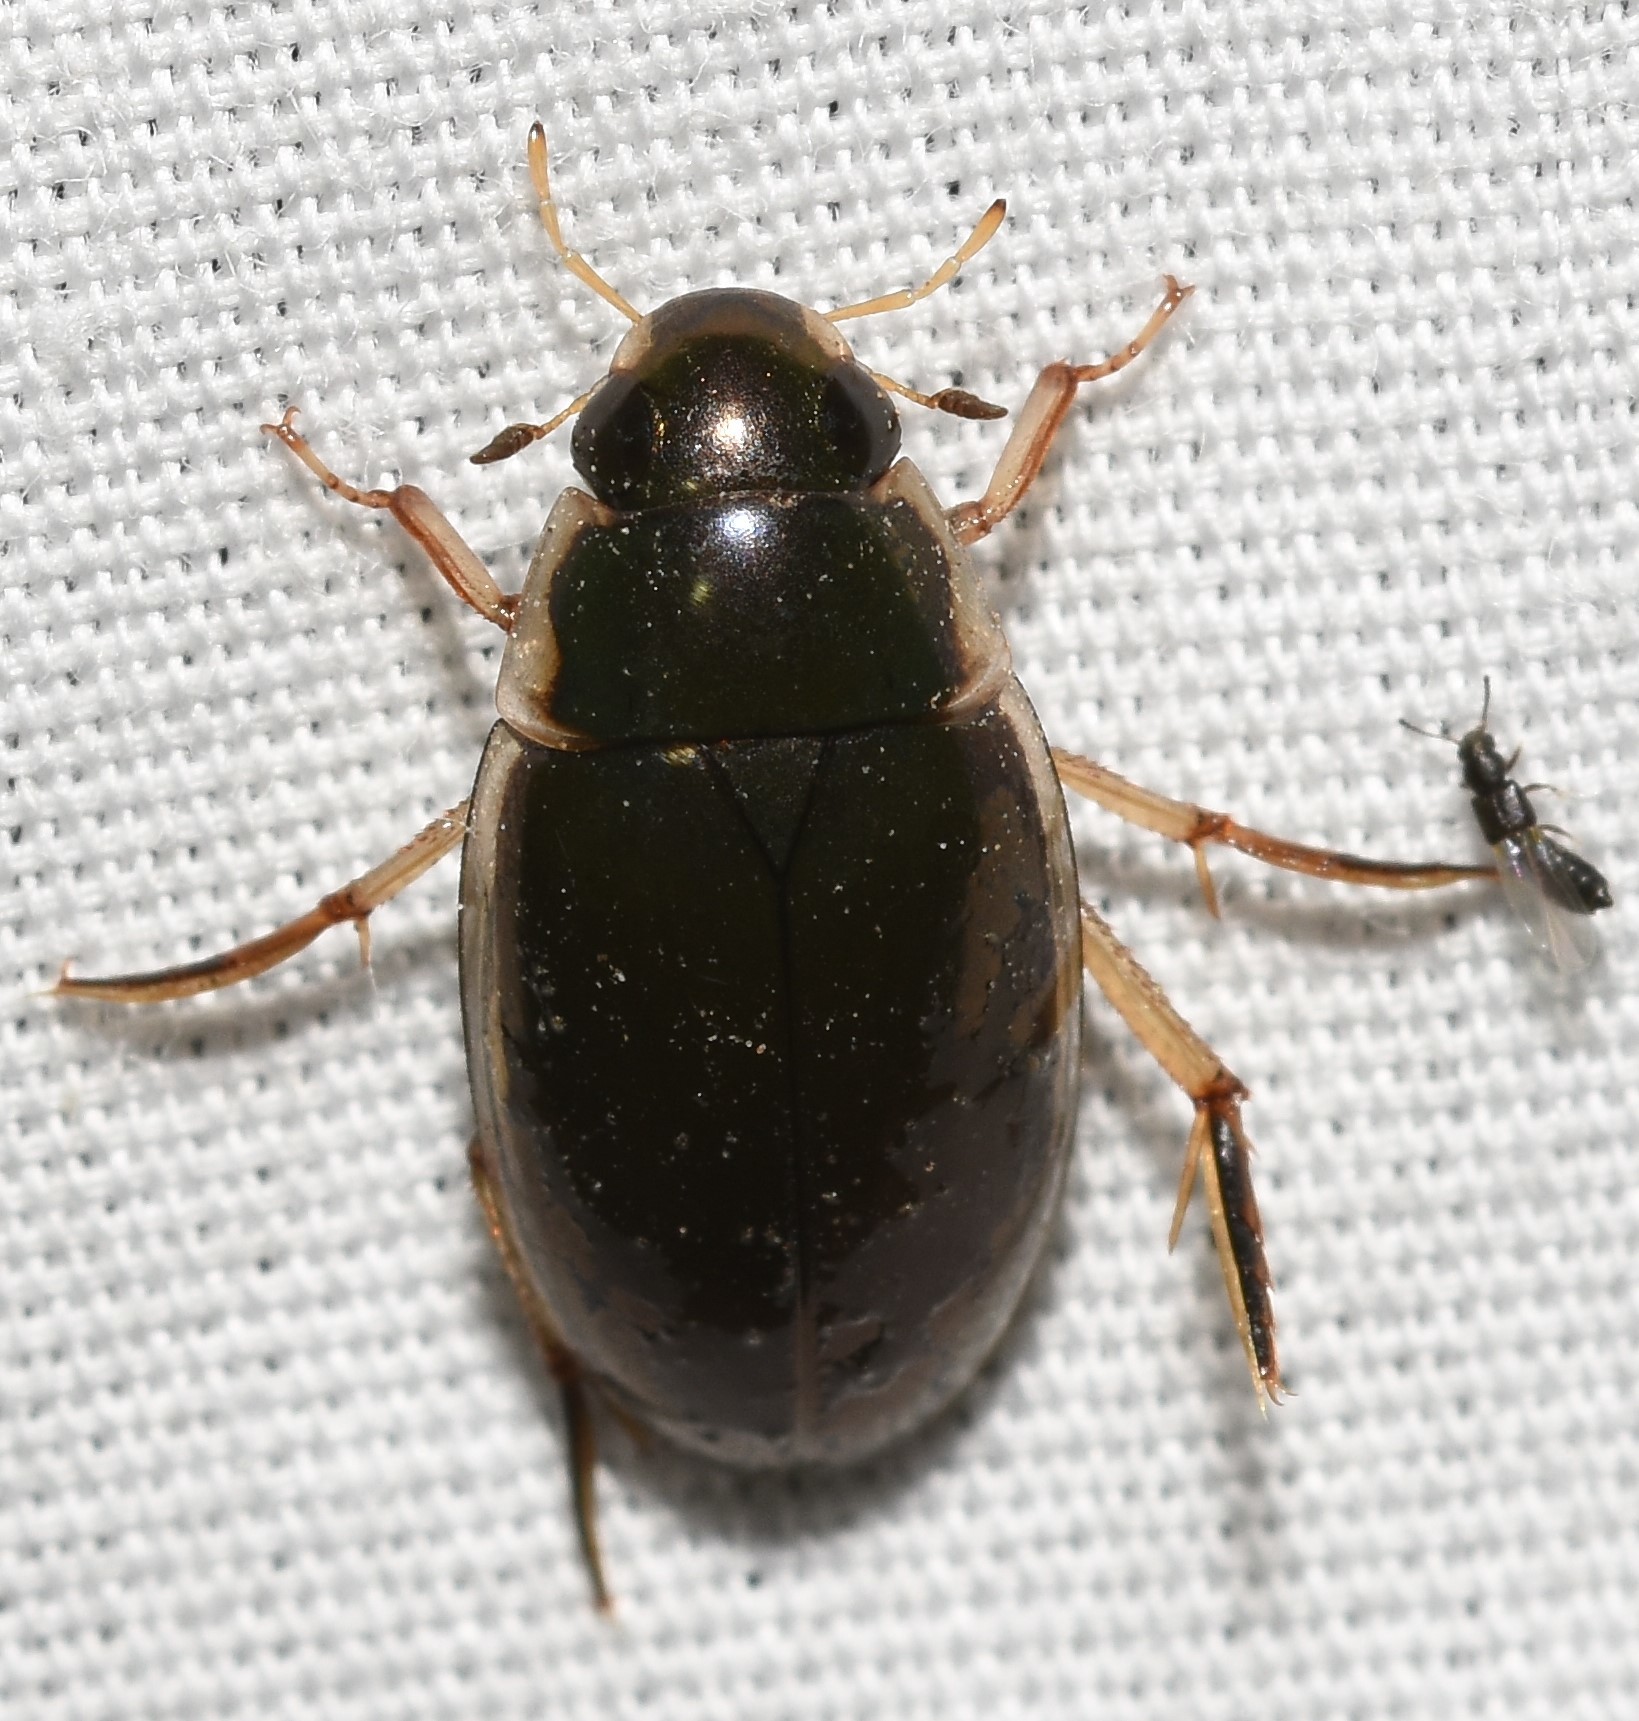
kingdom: Animalia
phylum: Arthropoda
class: Insecta
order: Coleoptera
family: Hydrophilidae
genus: Tropisternus
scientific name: Tropisternus lateralis
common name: Lateral-banded water scavenger beetle
